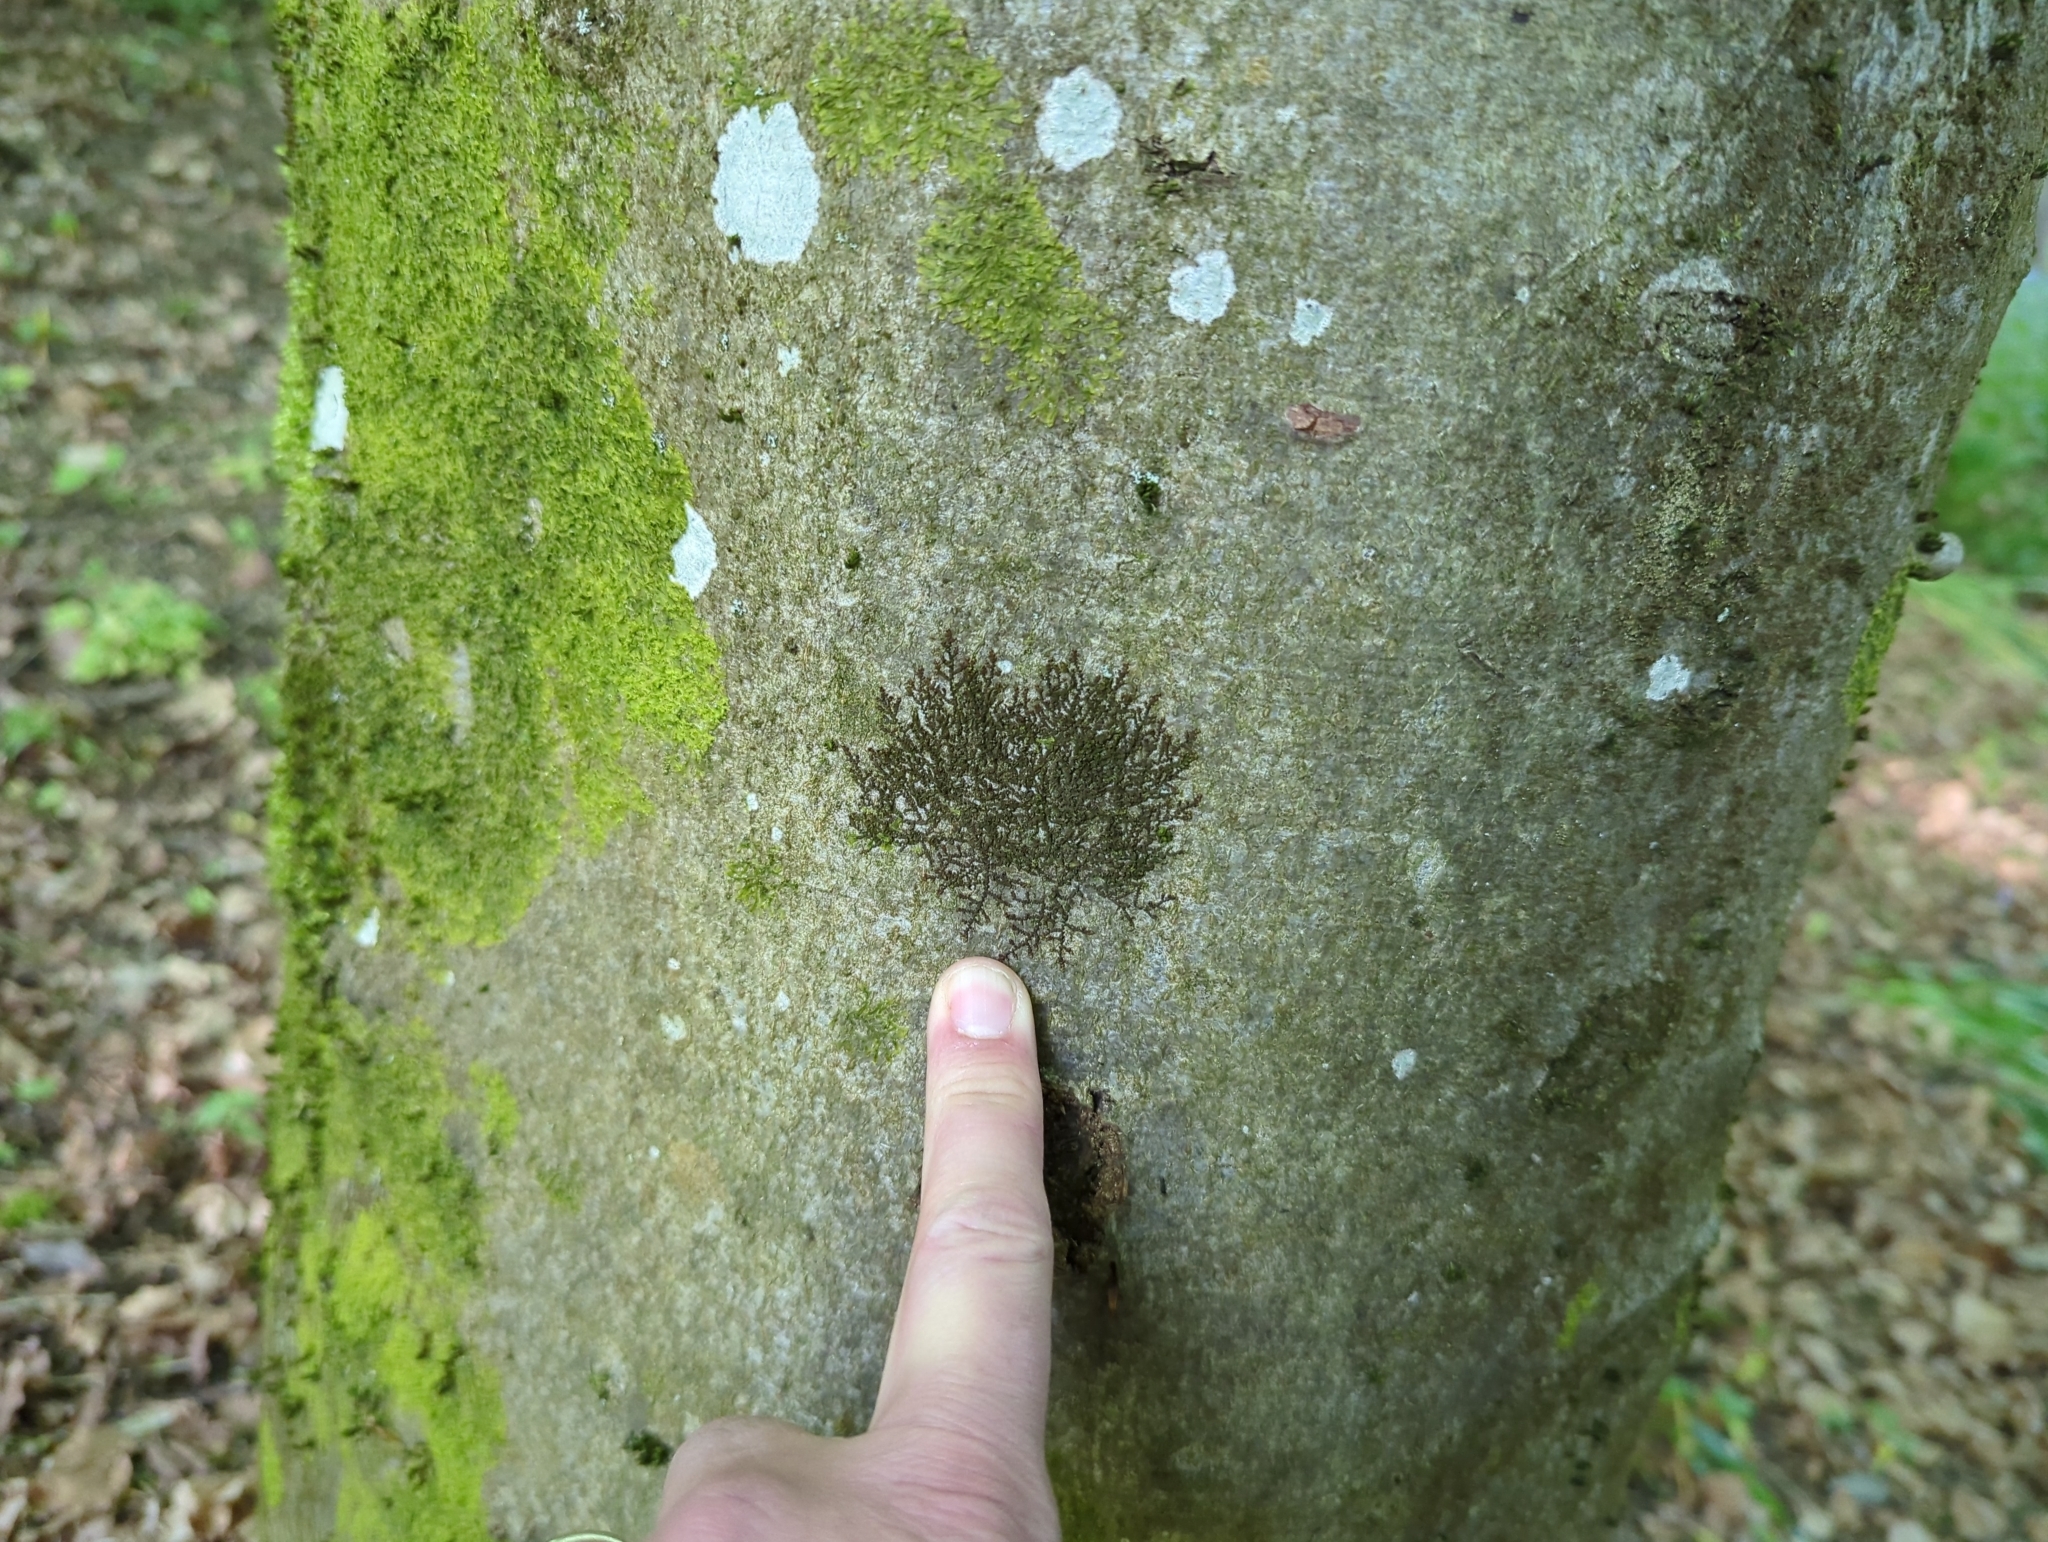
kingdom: Plantae
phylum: Marchantiophyta
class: Jungermanniopsida
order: Porellales
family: Frullaniaceae
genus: Frullania
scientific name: Frullania dilatata
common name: Dilated scalewort
